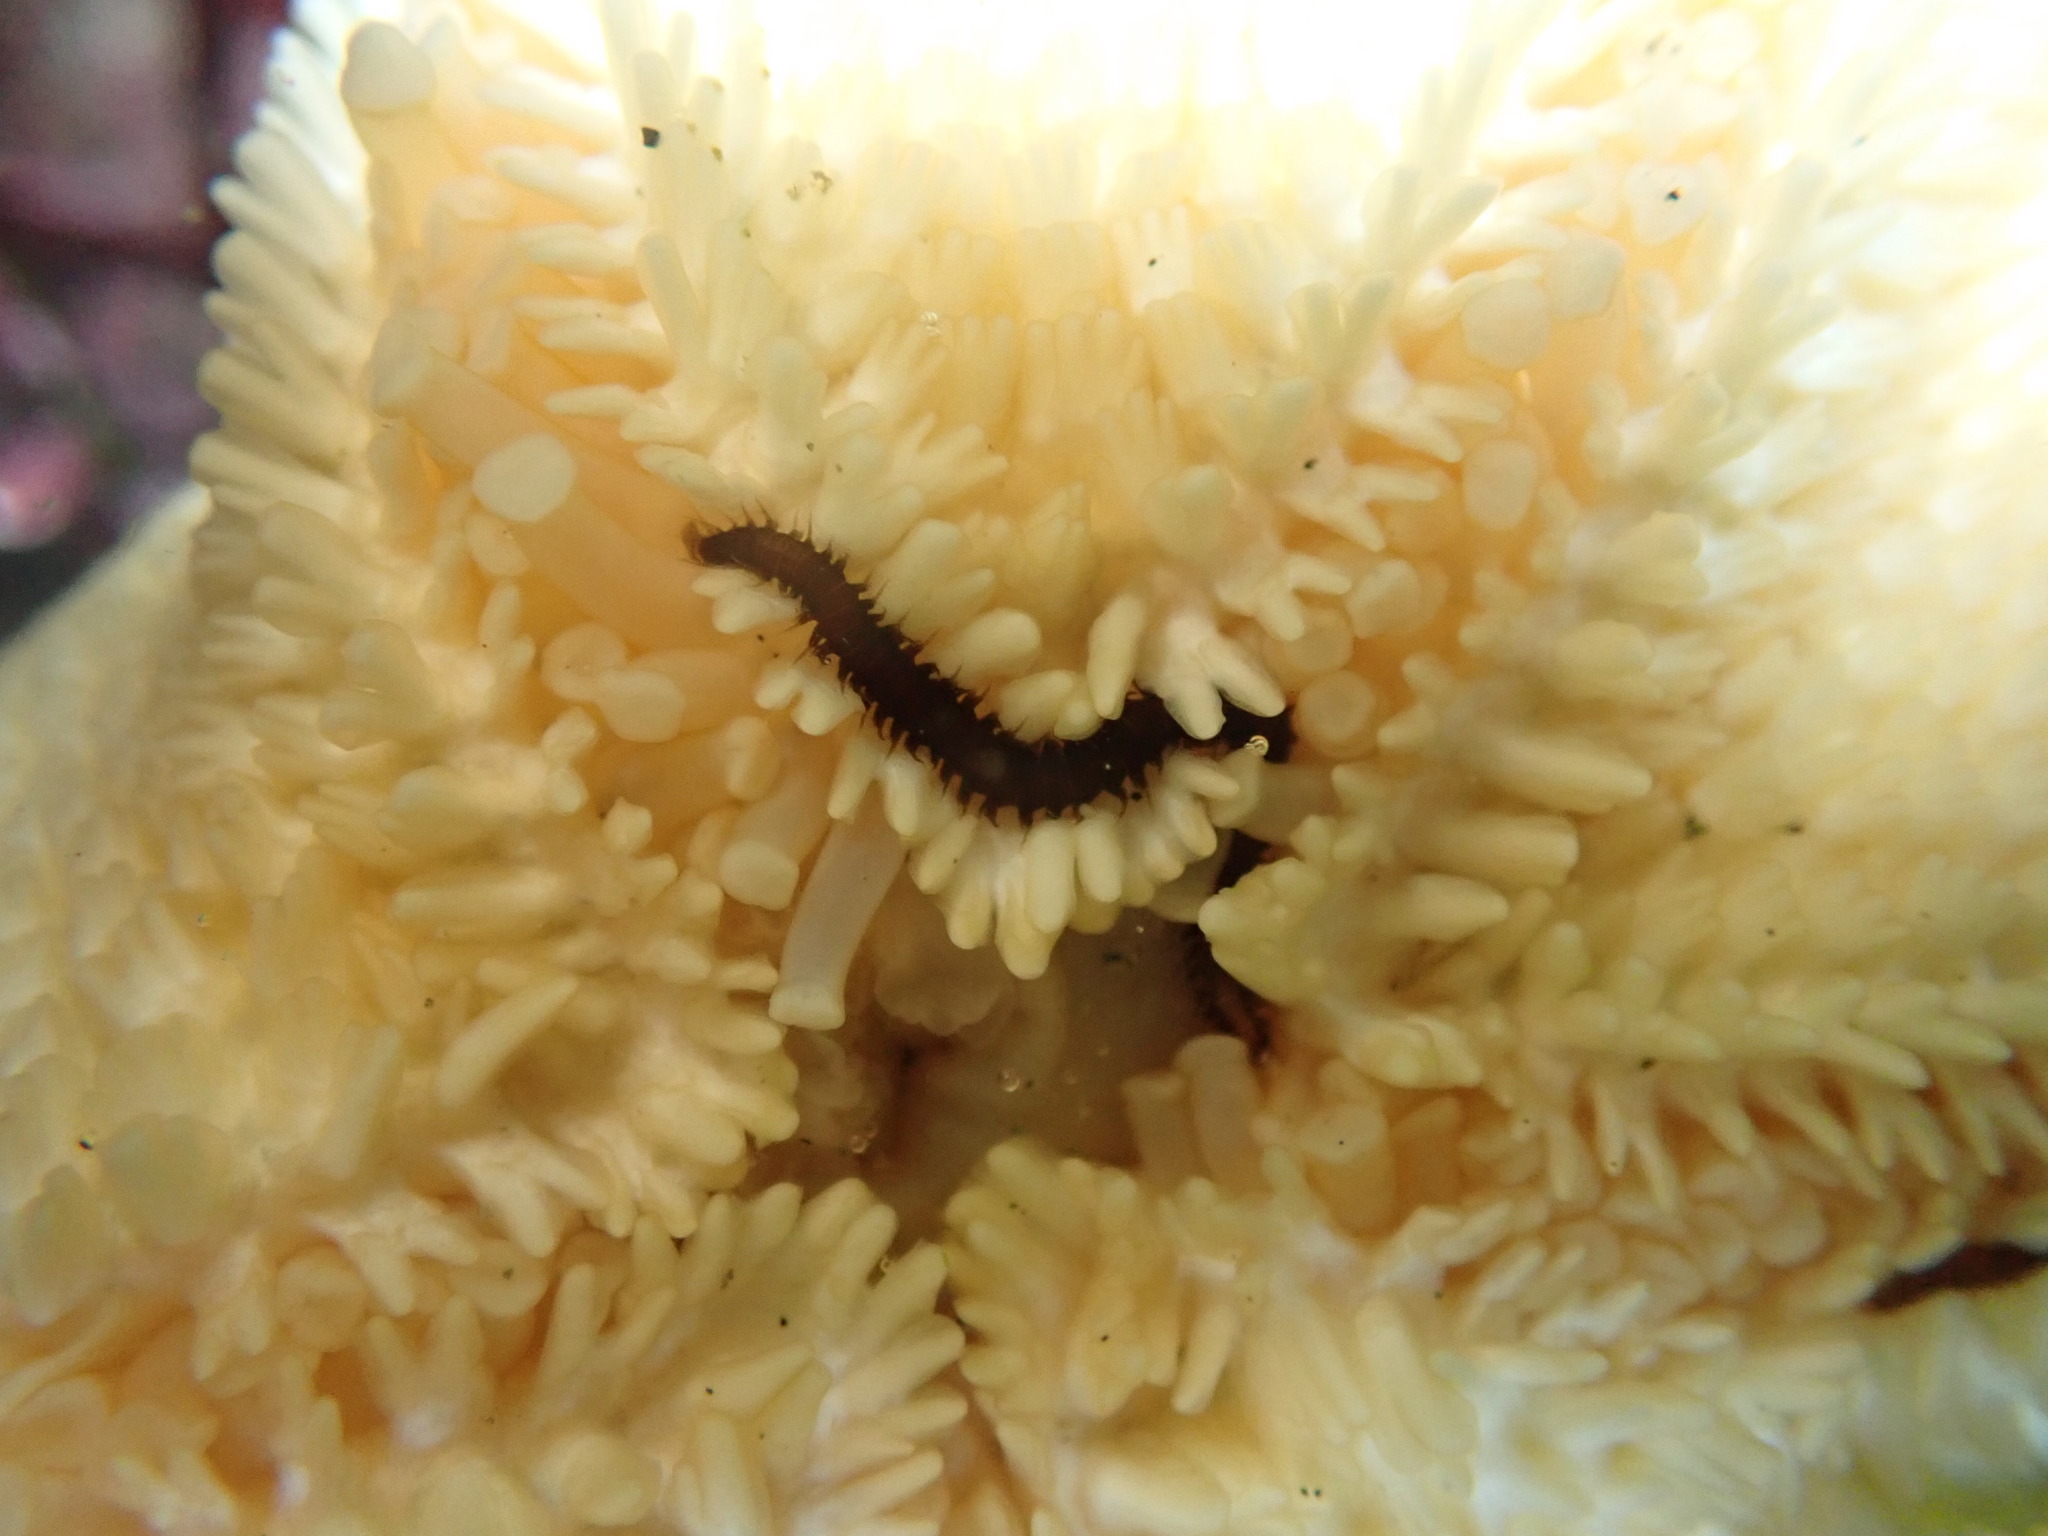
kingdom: Animalia
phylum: Annelida
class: Polychaeta
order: Phyllodocida
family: Hesionidae
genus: Oxydromus
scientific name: Oxydromus pugettensis
